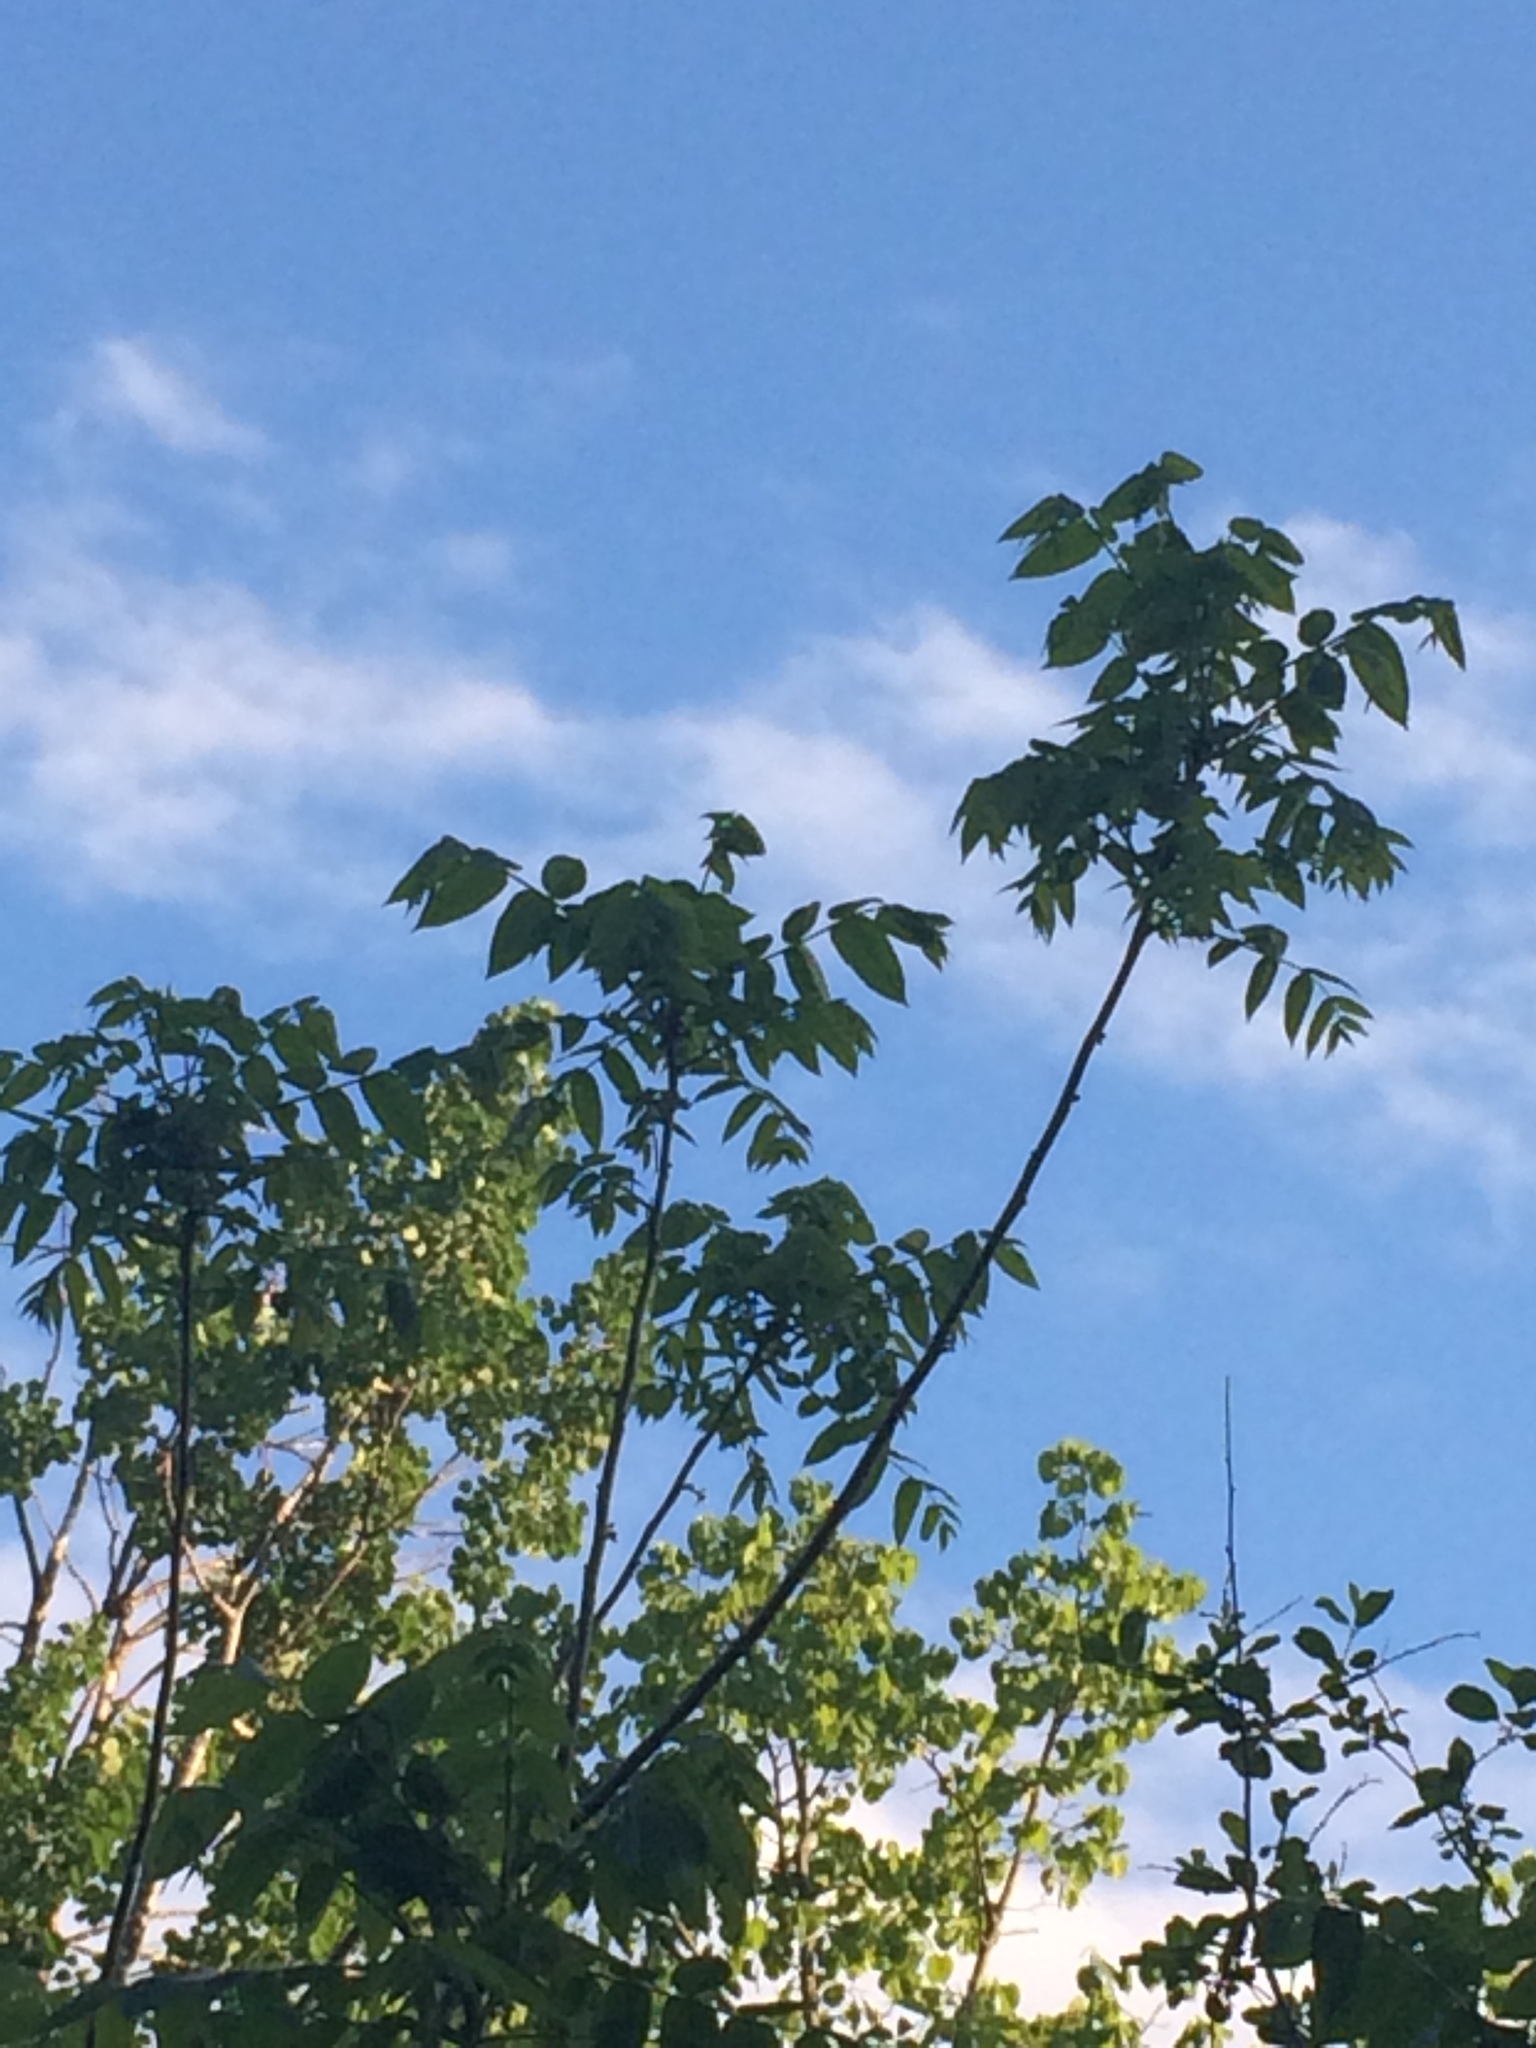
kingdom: Plantae
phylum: Tracheophyta
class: Magnoliopsida
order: Fagales
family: Juglandaceae
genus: Juglans
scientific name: Juglans nigra
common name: Black walnut
